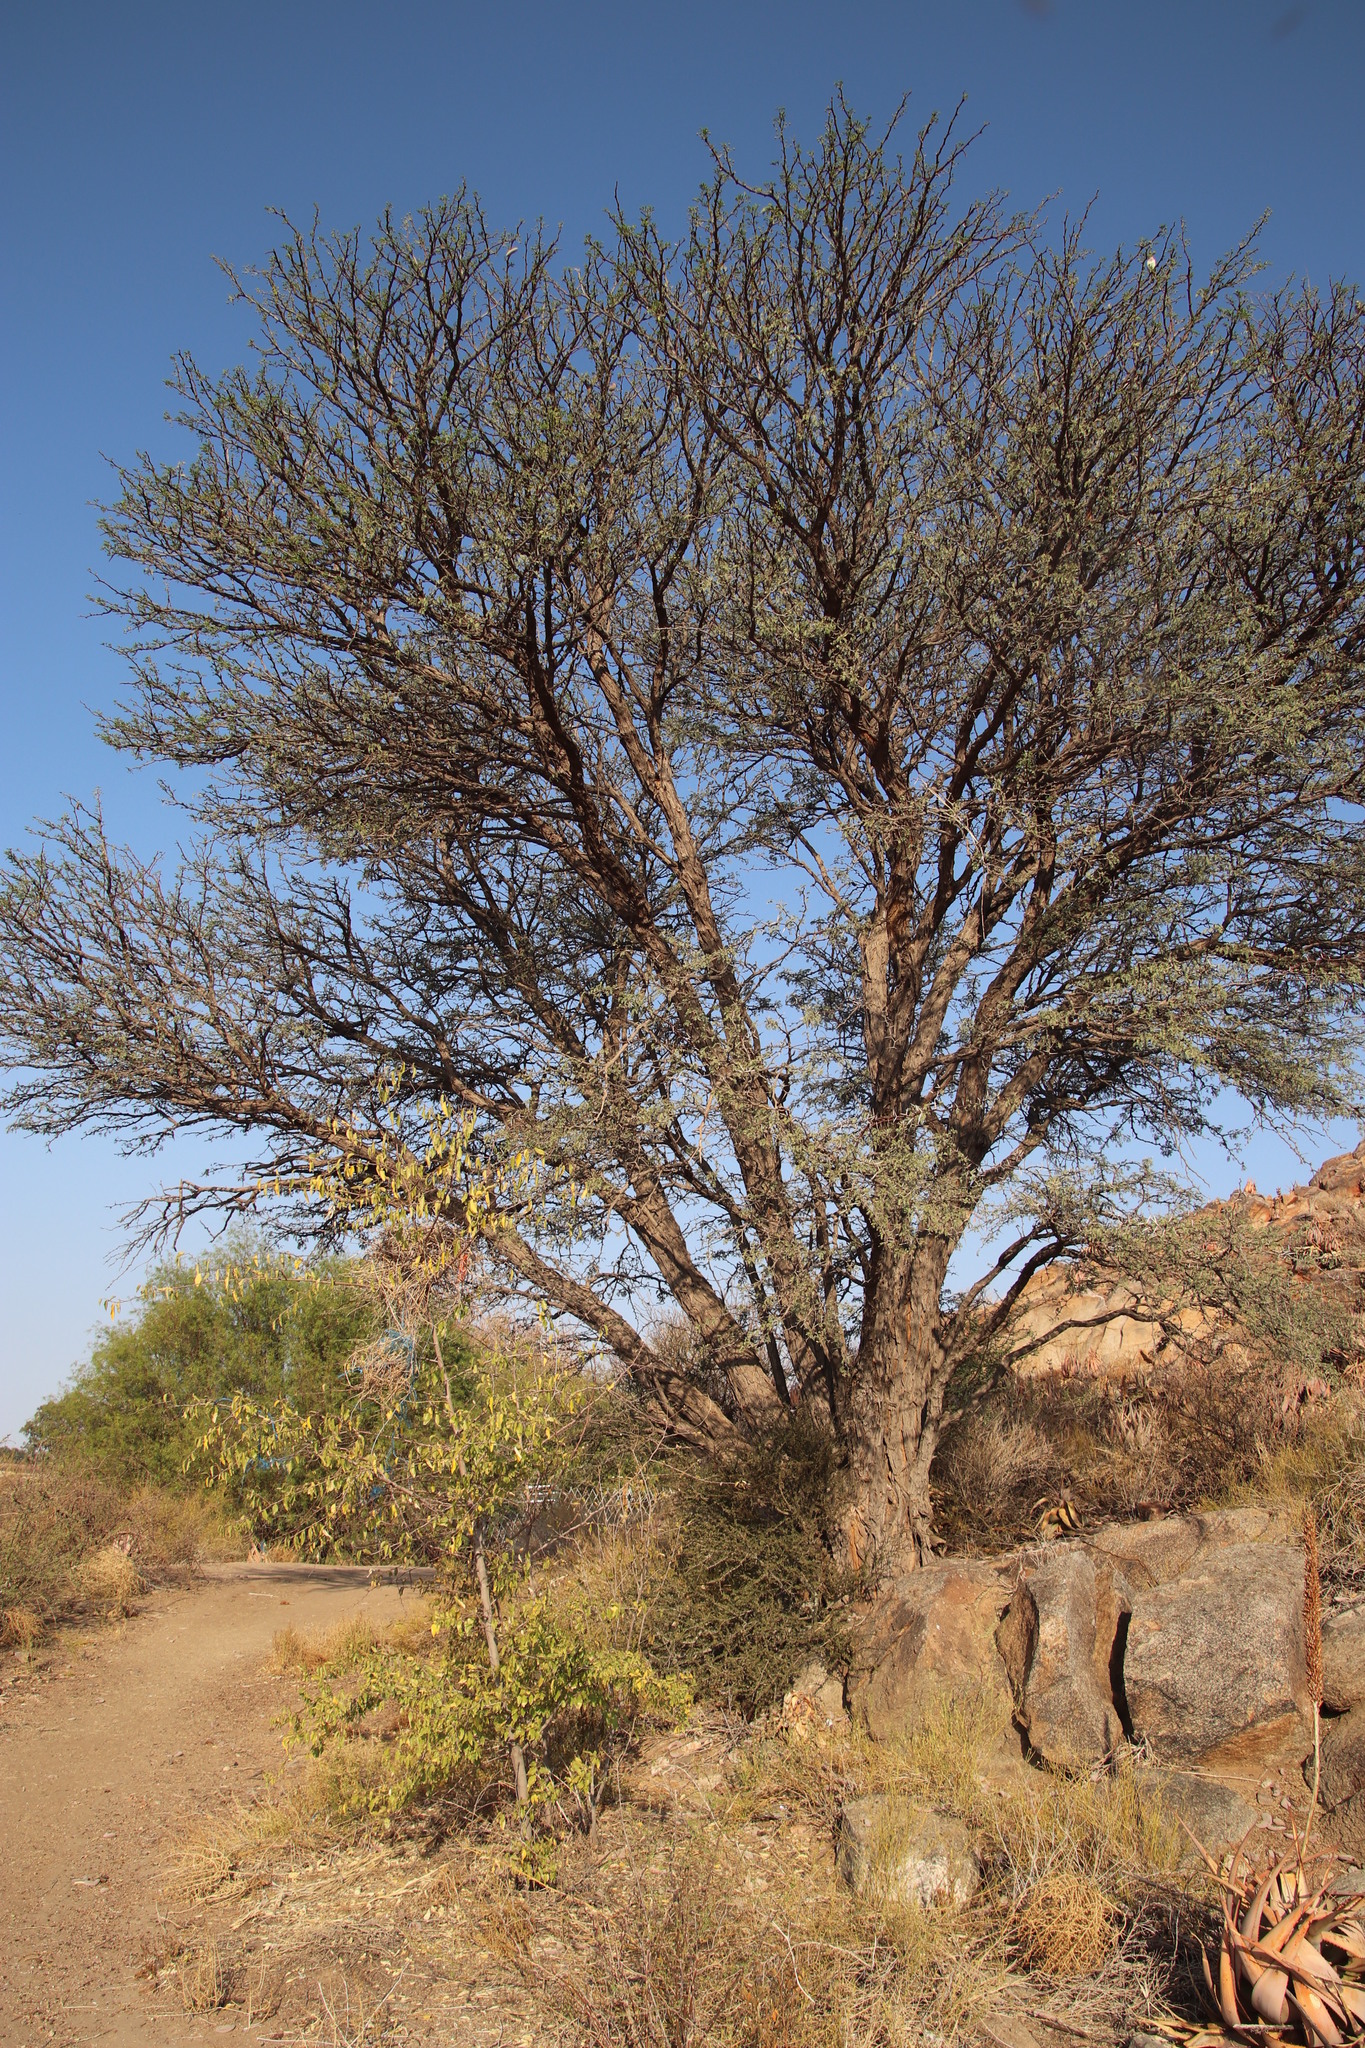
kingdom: Plantae
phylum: Tracheophyta
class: Magnoliopsida
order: Fabales
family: Fabaceae
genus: Vachellia
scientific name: Vachellia erioloba
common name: Camel thorn
